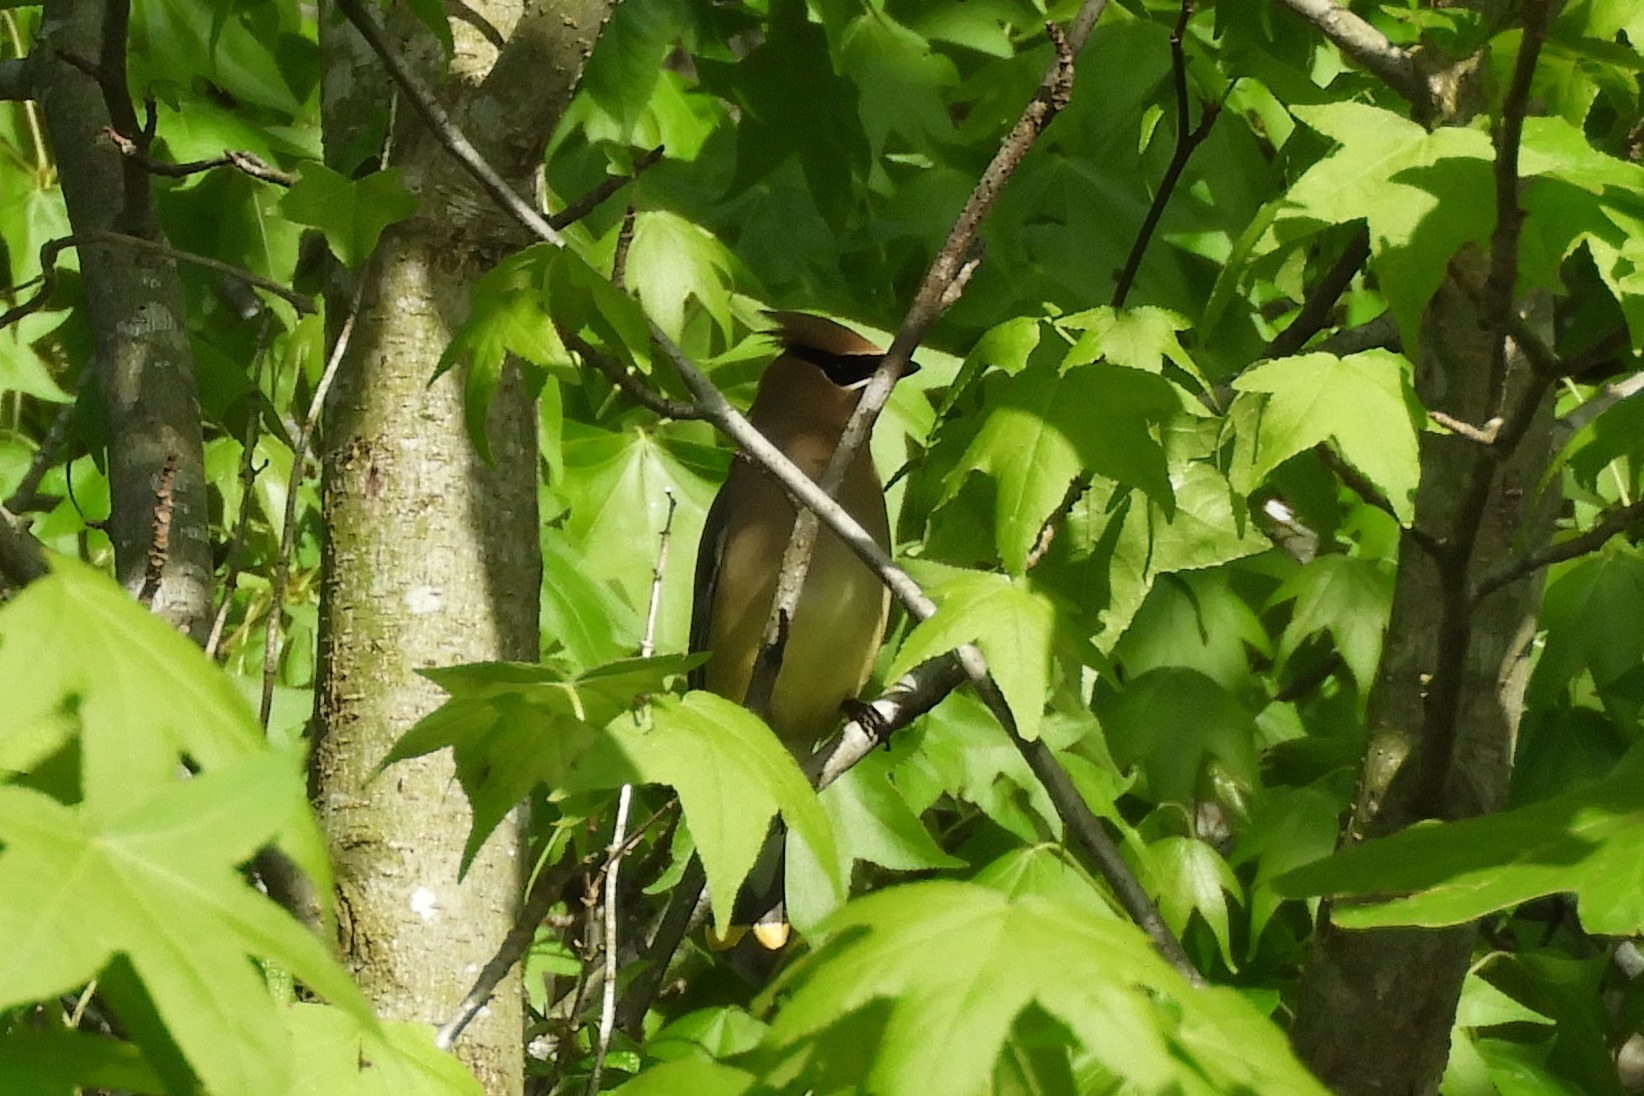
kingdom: Animalia
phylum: Chordata
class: Aves
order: Passeriformes
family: Bombycillidae
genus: Bombycilla
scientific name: Bombycilla cedrorum
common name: Cedar waxwing
